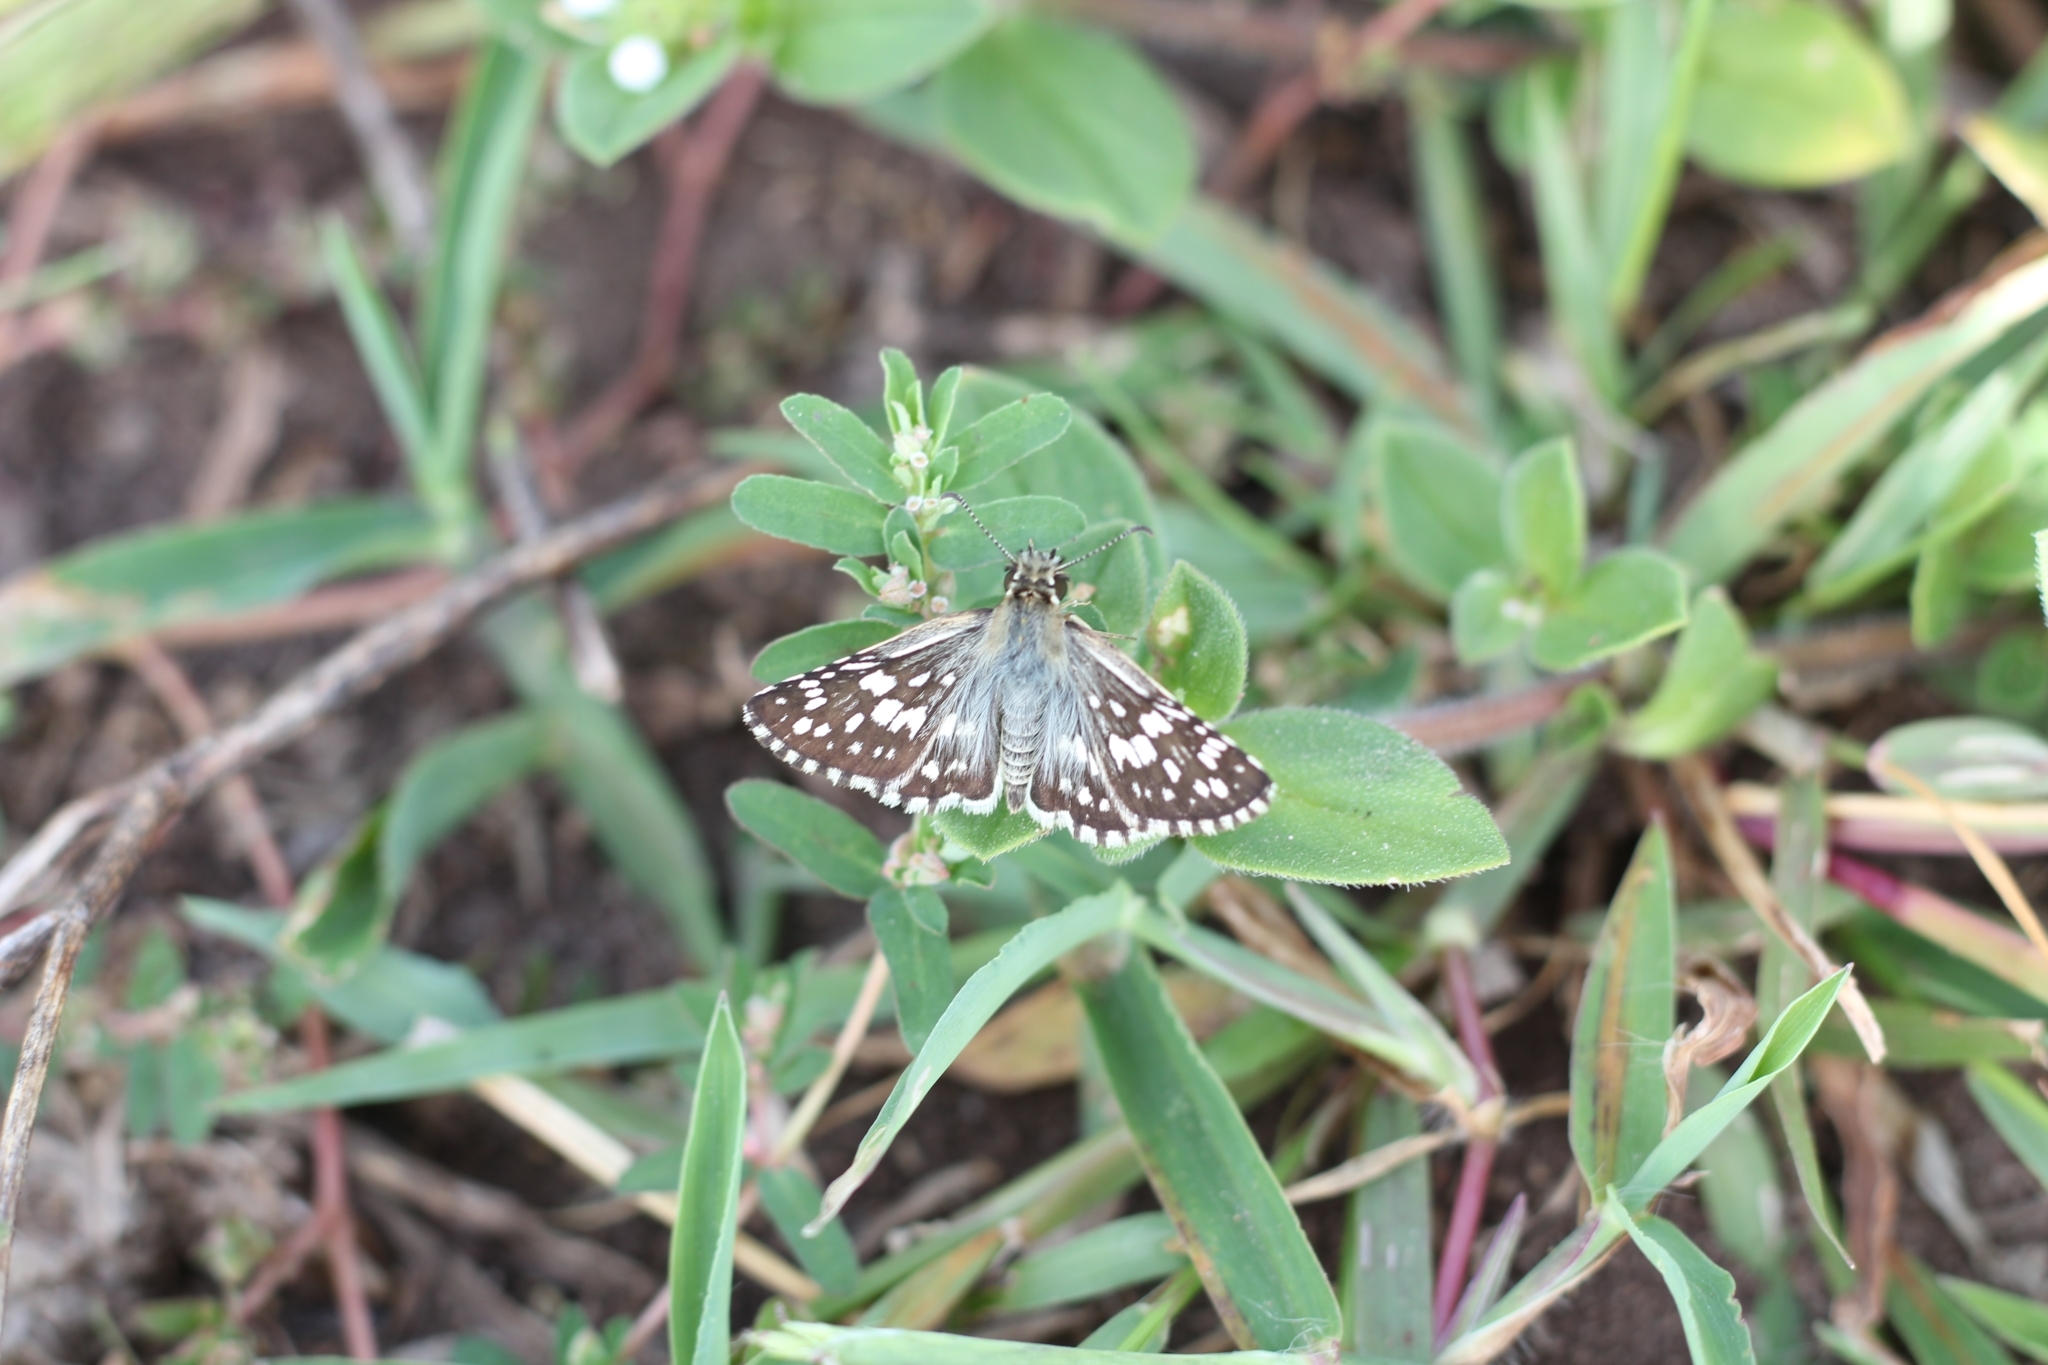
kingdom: Animalia
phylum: Arthropoda
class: Insecta
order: Lepidoptera
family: Hesperiidae
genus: Burnsius
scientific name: Burnsius orcynoides
